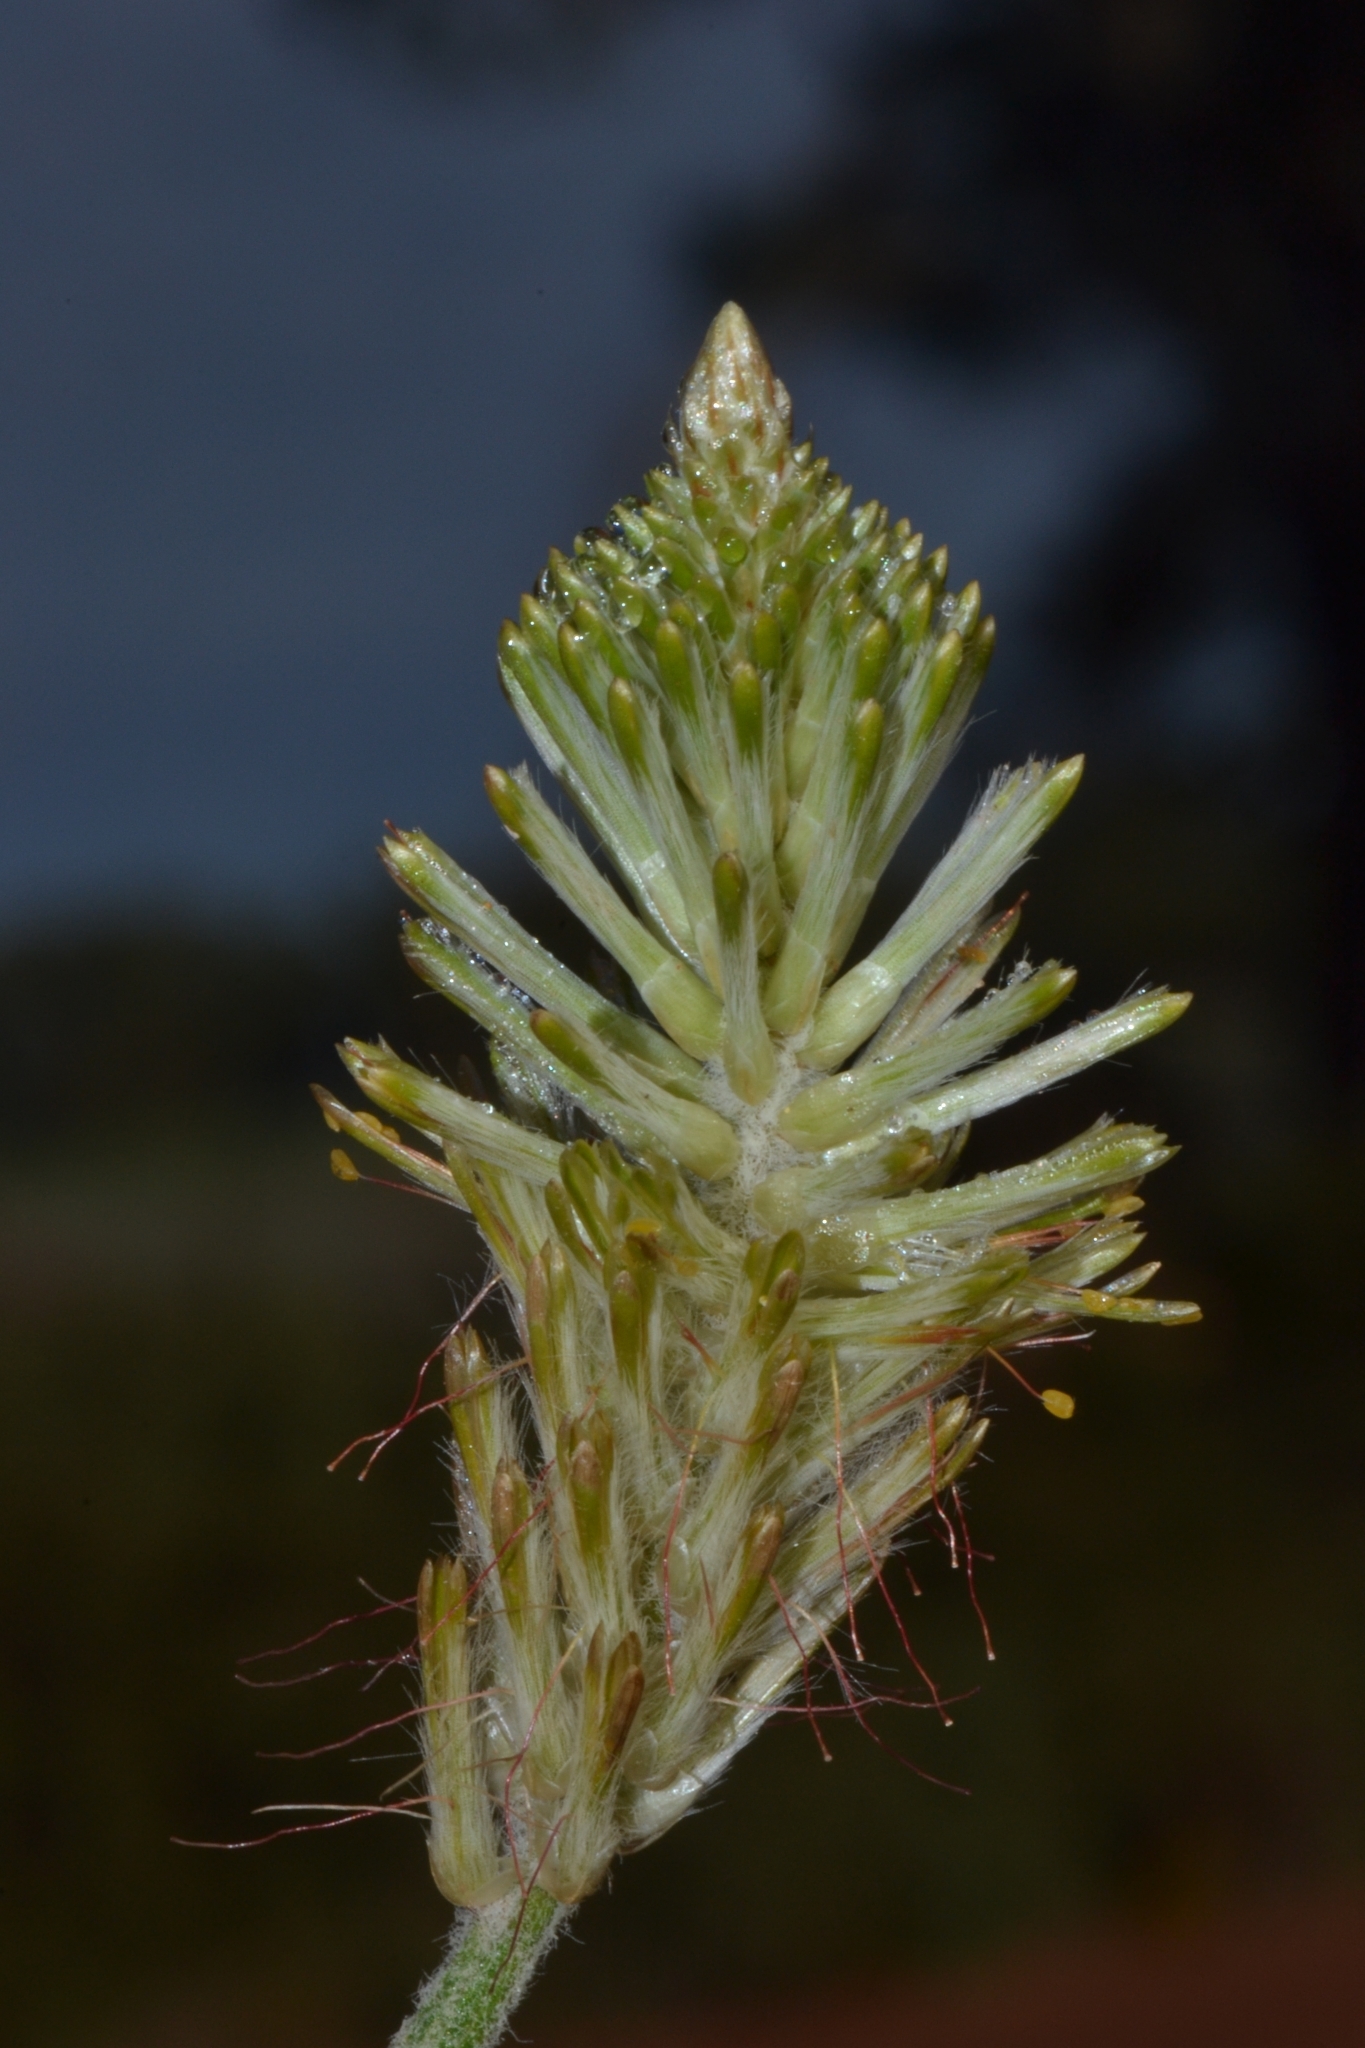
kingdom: Plantae
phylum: Tracheophyta
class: Magnoliopsida
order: Caryophyllales
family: Amaranthaceae
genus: Ptilotus
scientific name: Ptilotus polystachyus
